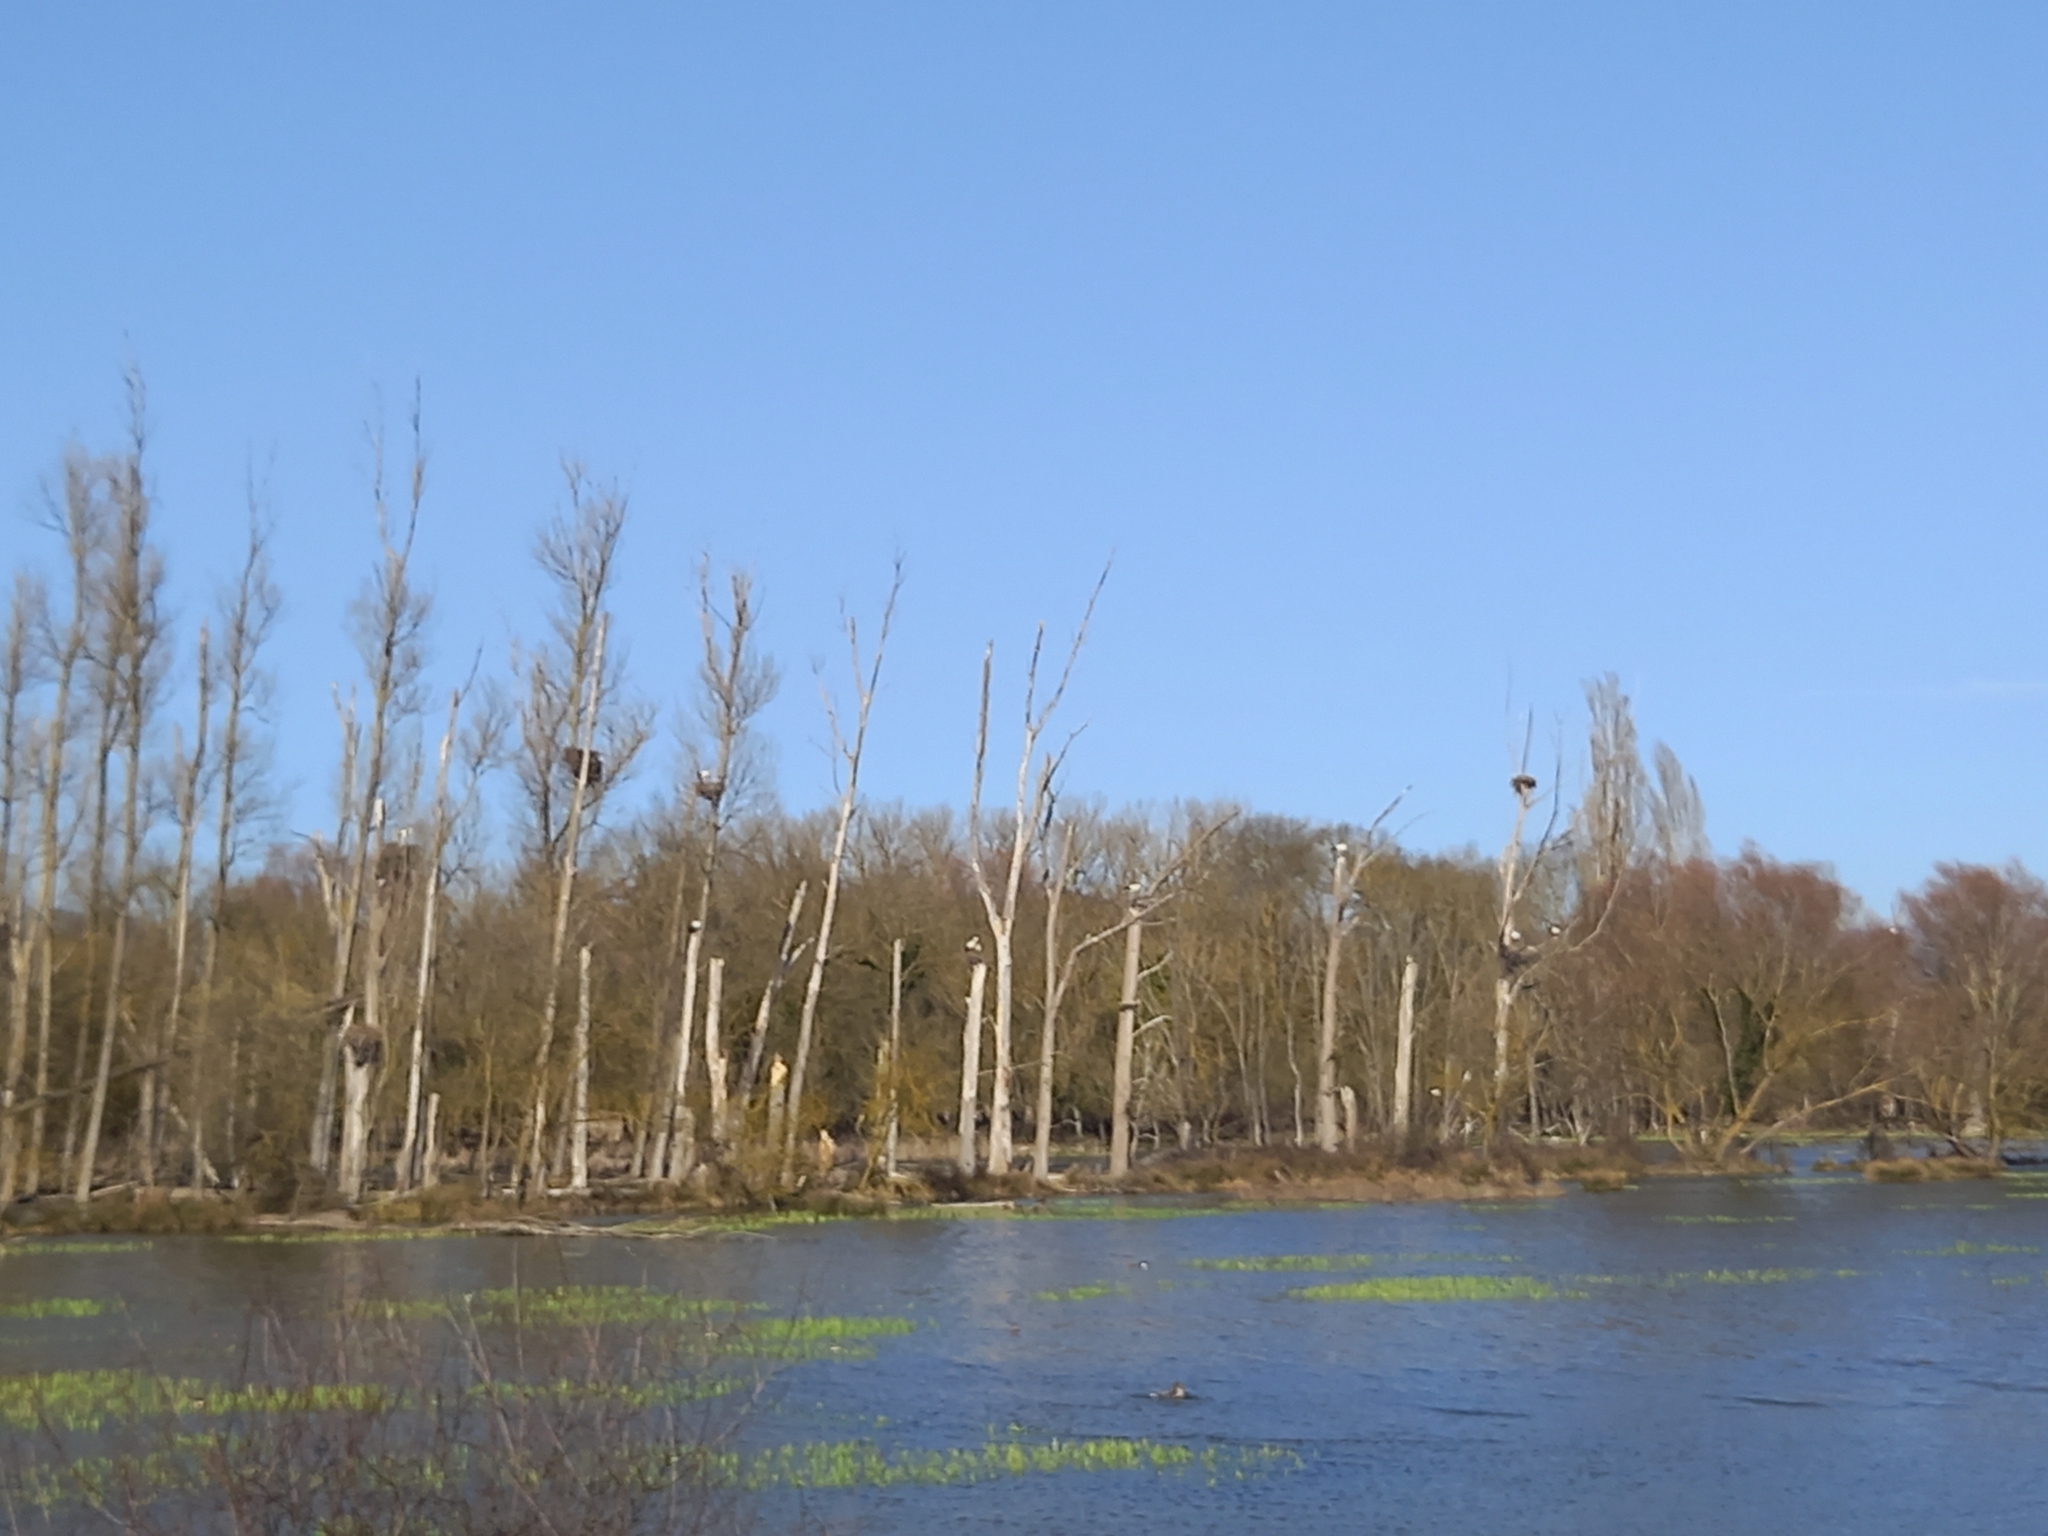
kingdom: Animalia
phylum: Chordata
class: Aves
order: Ciconiiformes
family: Ciconiidae
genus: Ciconia
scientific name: Ciconia ciconia
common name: White stork
